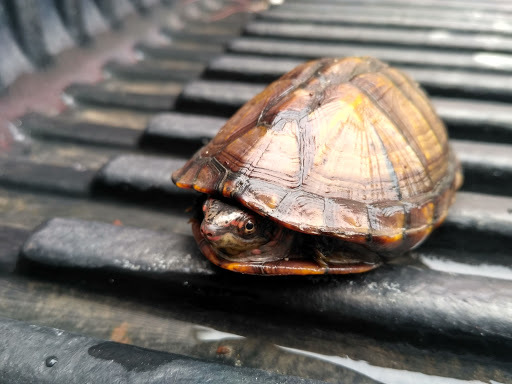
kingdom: Animalia
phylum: Chordata
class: Testudines
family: Kinosternidae
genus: Kinosternon
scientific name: Kinosternon scorpioides
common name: Scorpion mud turtle
